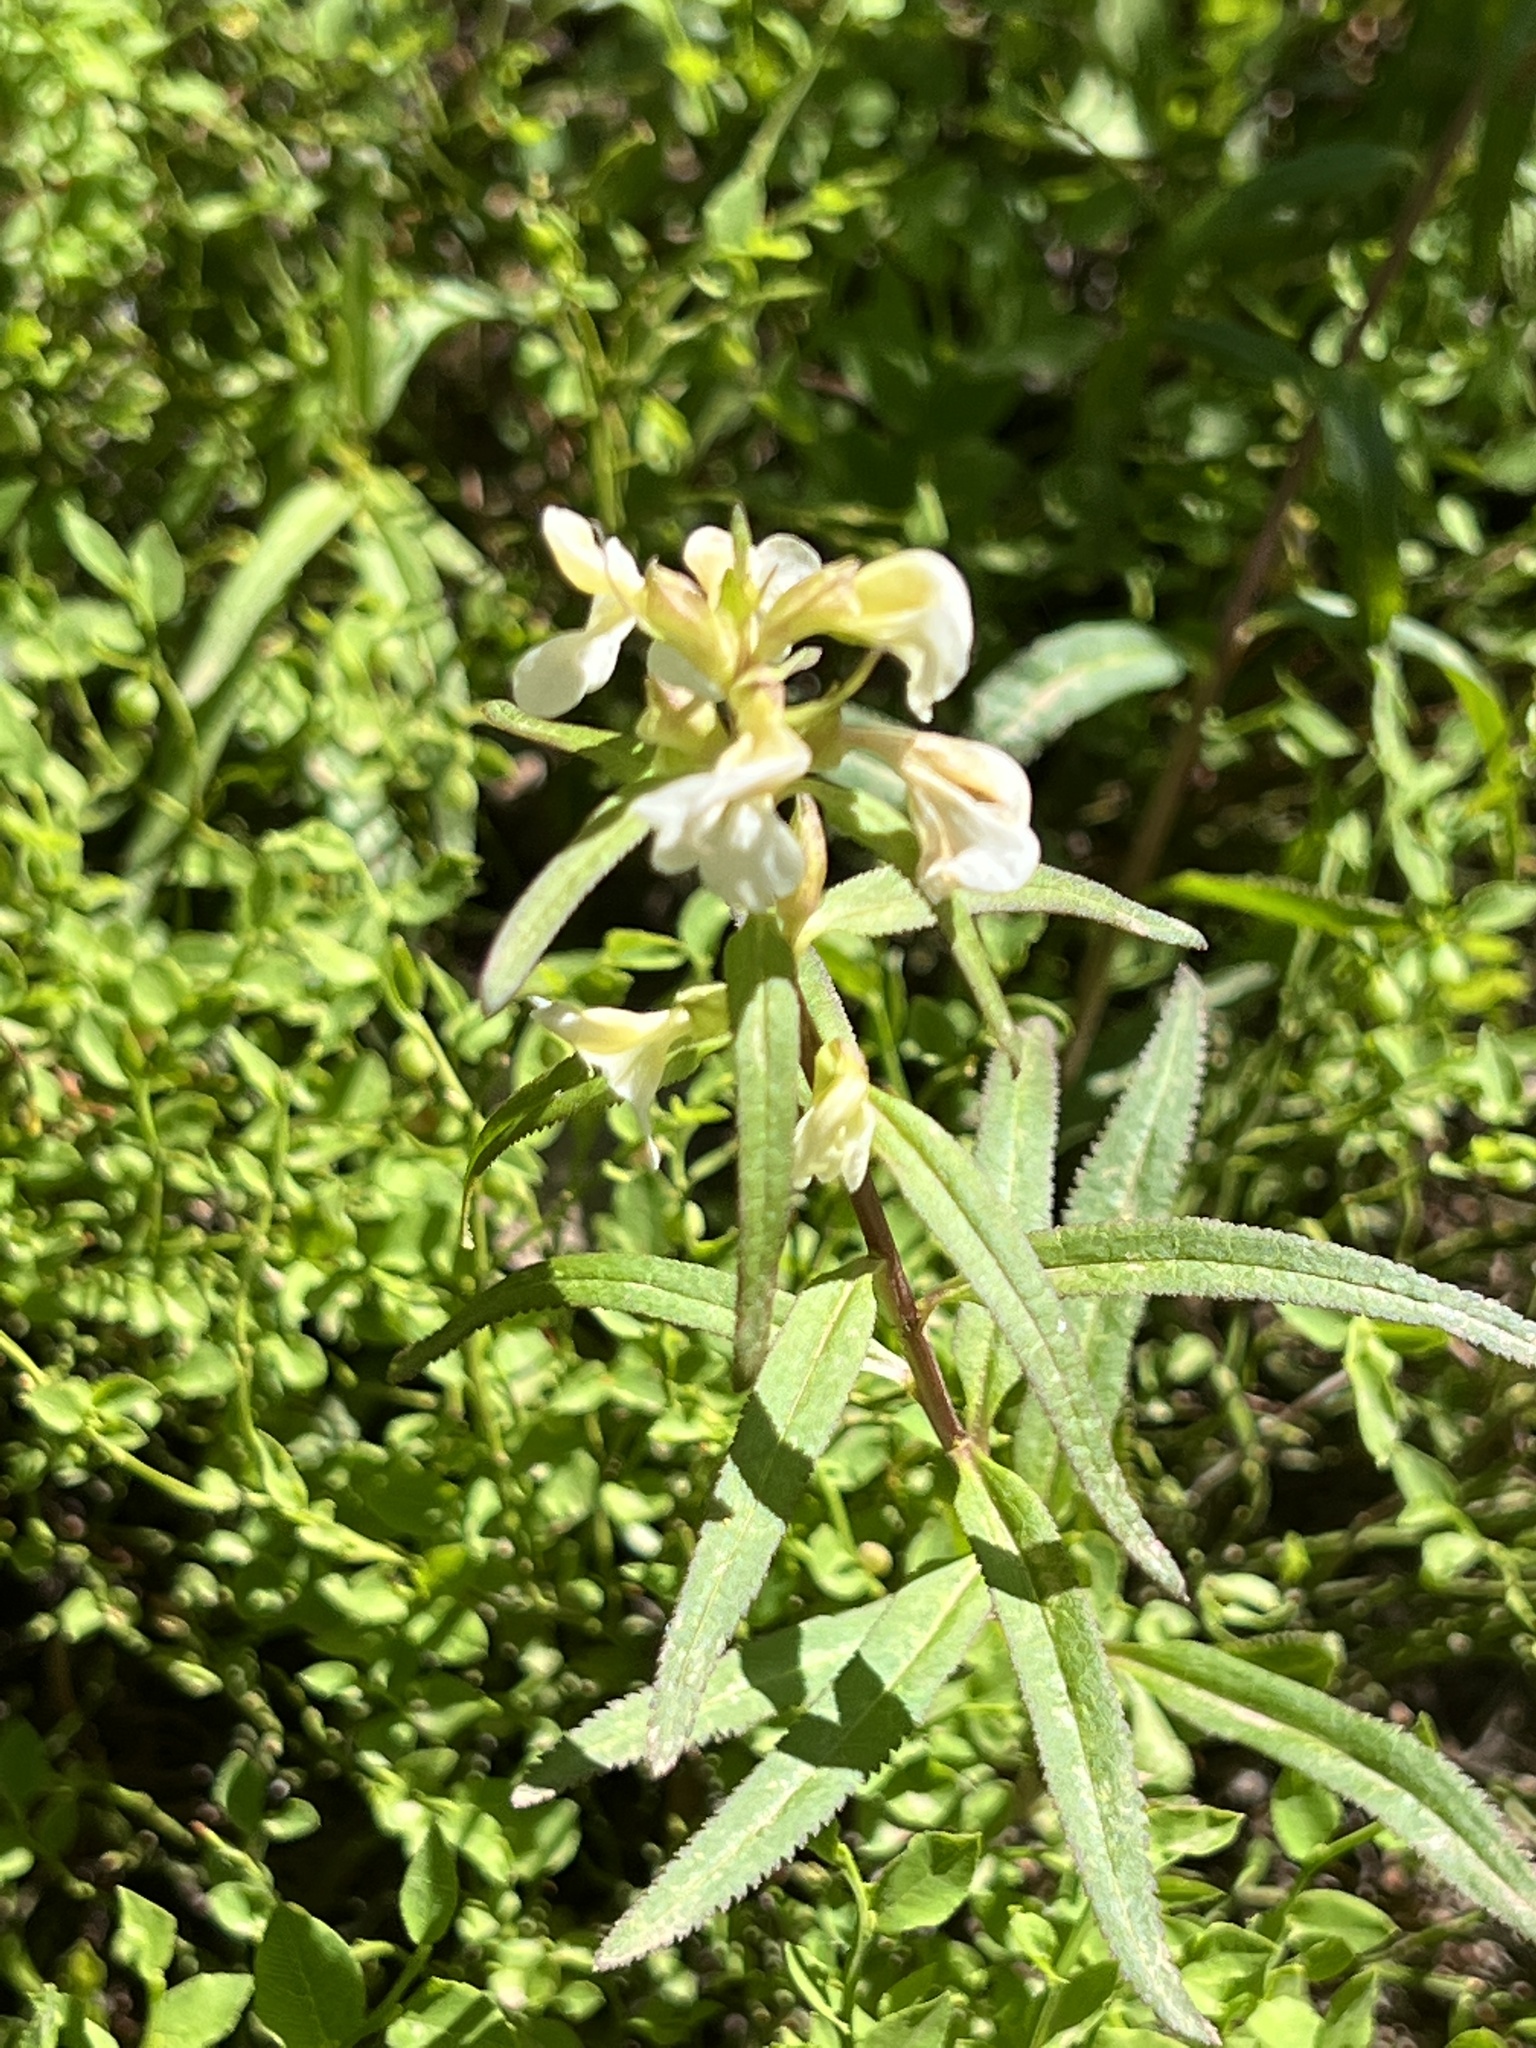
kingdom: Plantae
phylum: Tracheophyta
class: Magnoliopsida
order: Lamiales
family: Orobanchaceae
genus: Pedicularis
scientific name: Pedicularis racemosa
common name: Leafy lousewort
